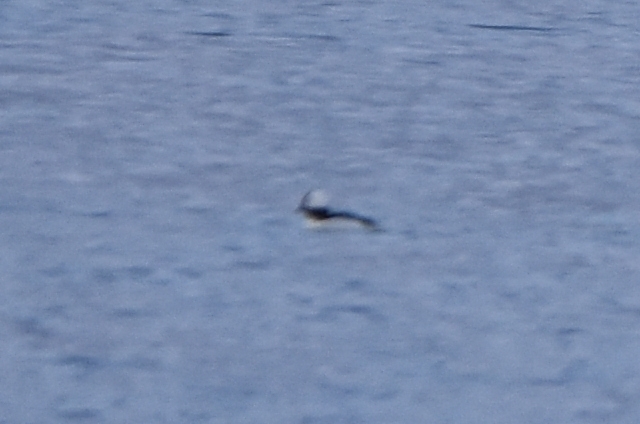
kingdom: Animalia
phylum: Chordata
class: Aves
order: Anseriformes
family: Anatidae
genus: Bucephala
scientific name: Bucephala albeola
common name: Bufflehead
